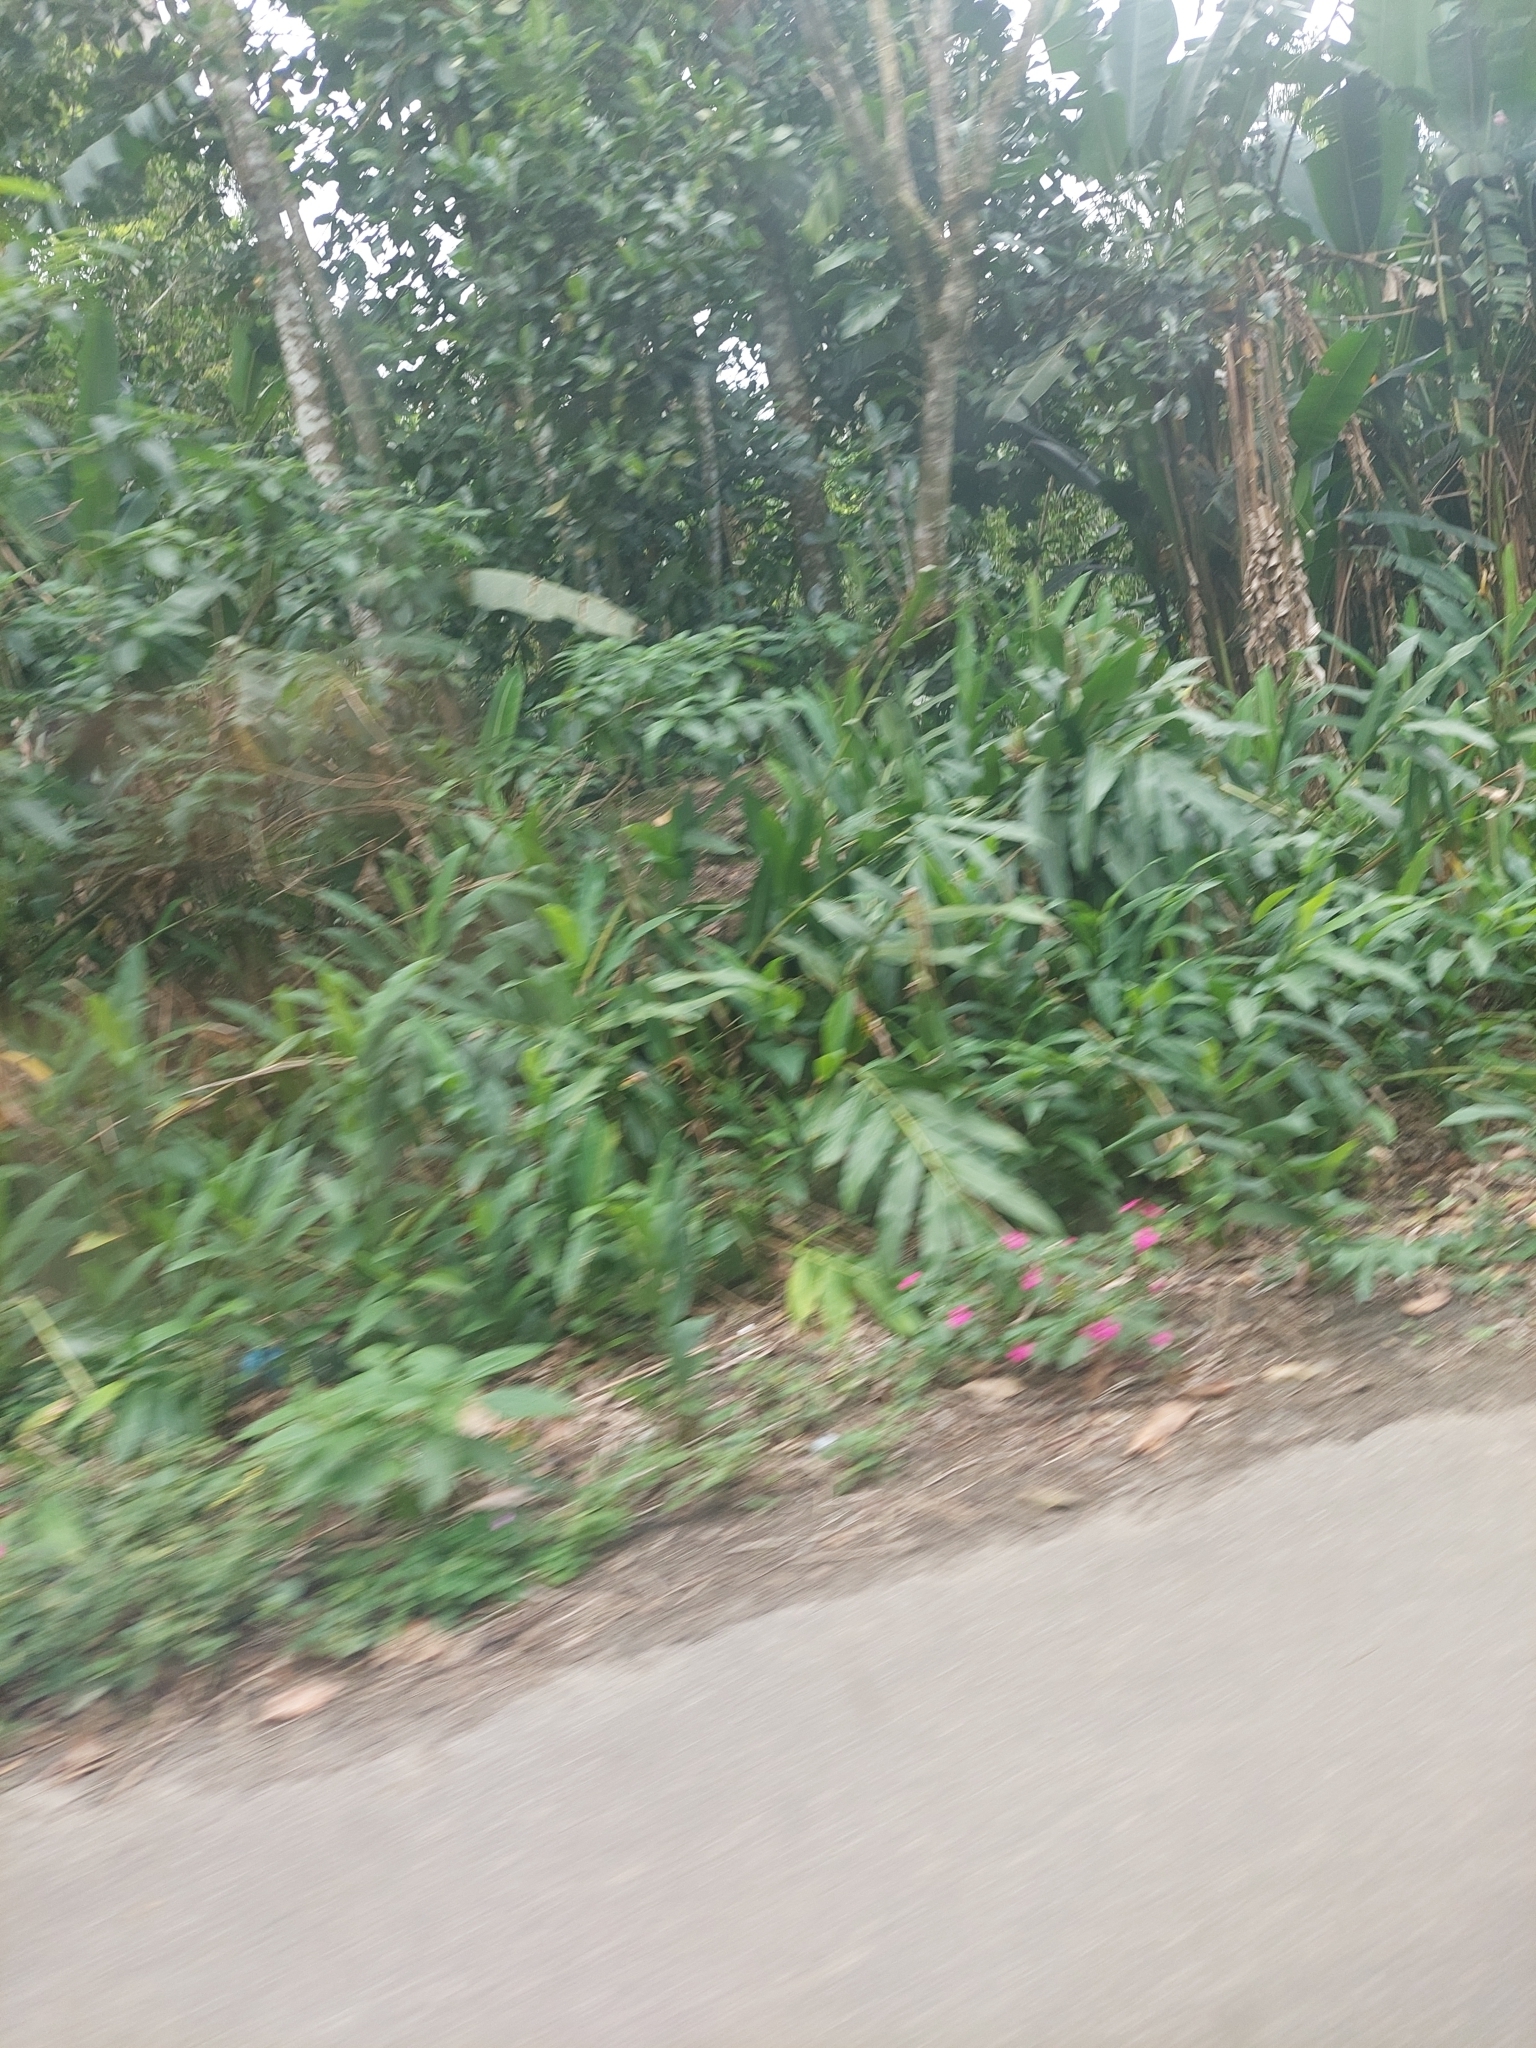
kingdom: Plantae
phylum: Tracheophyta
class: Liliopsida
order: Zingiberales
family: Zingiberaceae
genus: Hedychium
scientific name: Hedychium coronarium
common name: White garland-lily
